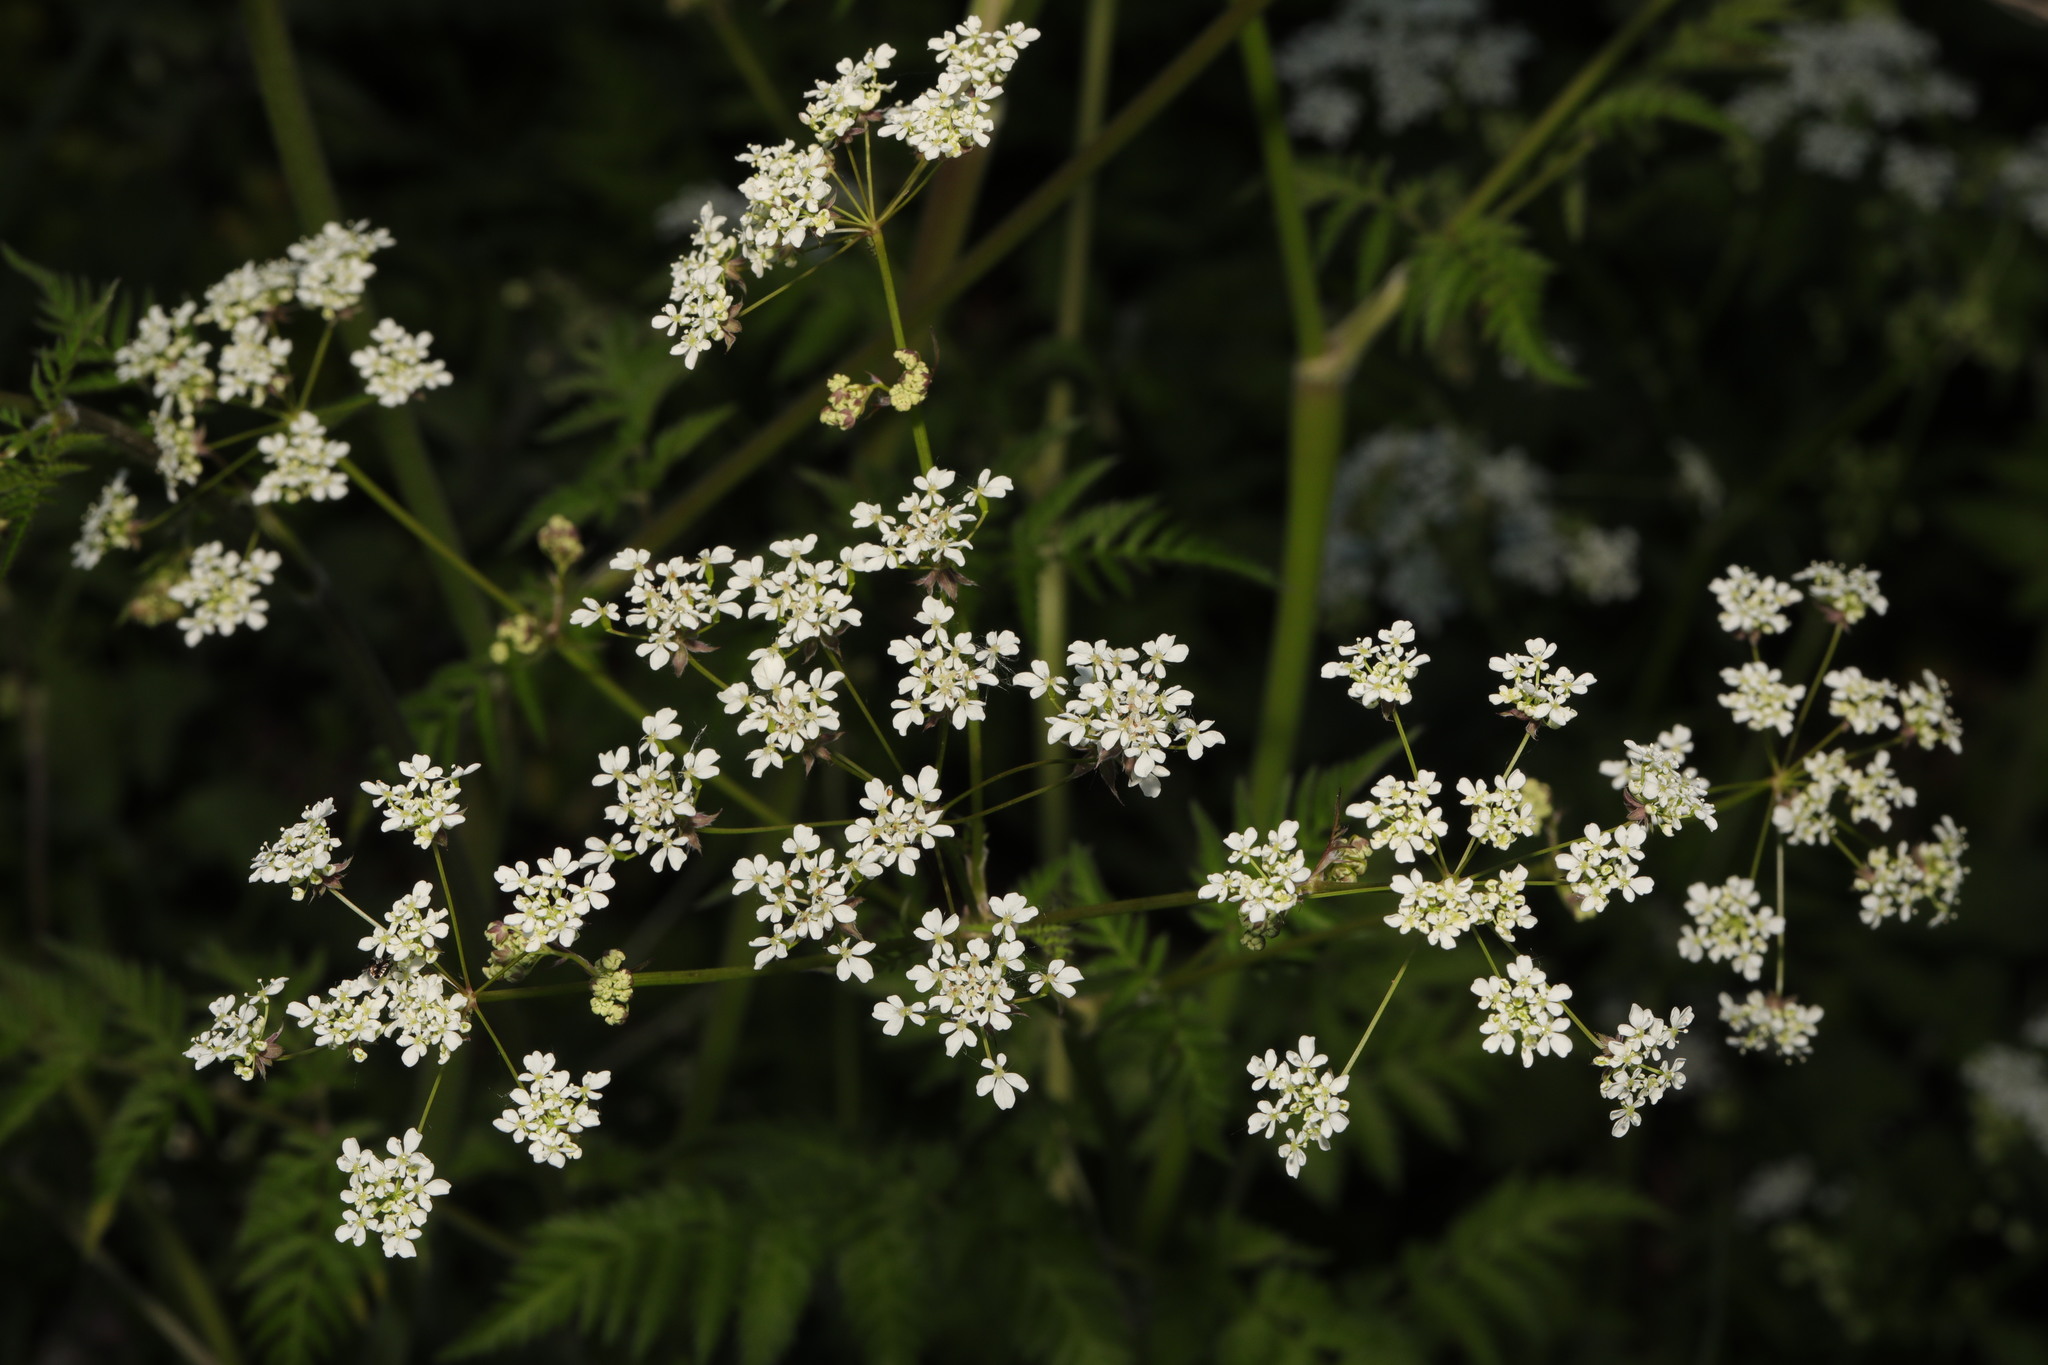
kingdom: Plantae
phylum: Tracheophyta
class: Magnoliopsida
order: Apiales
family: Apiaceae
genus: Anthriscus
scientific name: Anthriscus sylvestris
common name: Cow parsley
